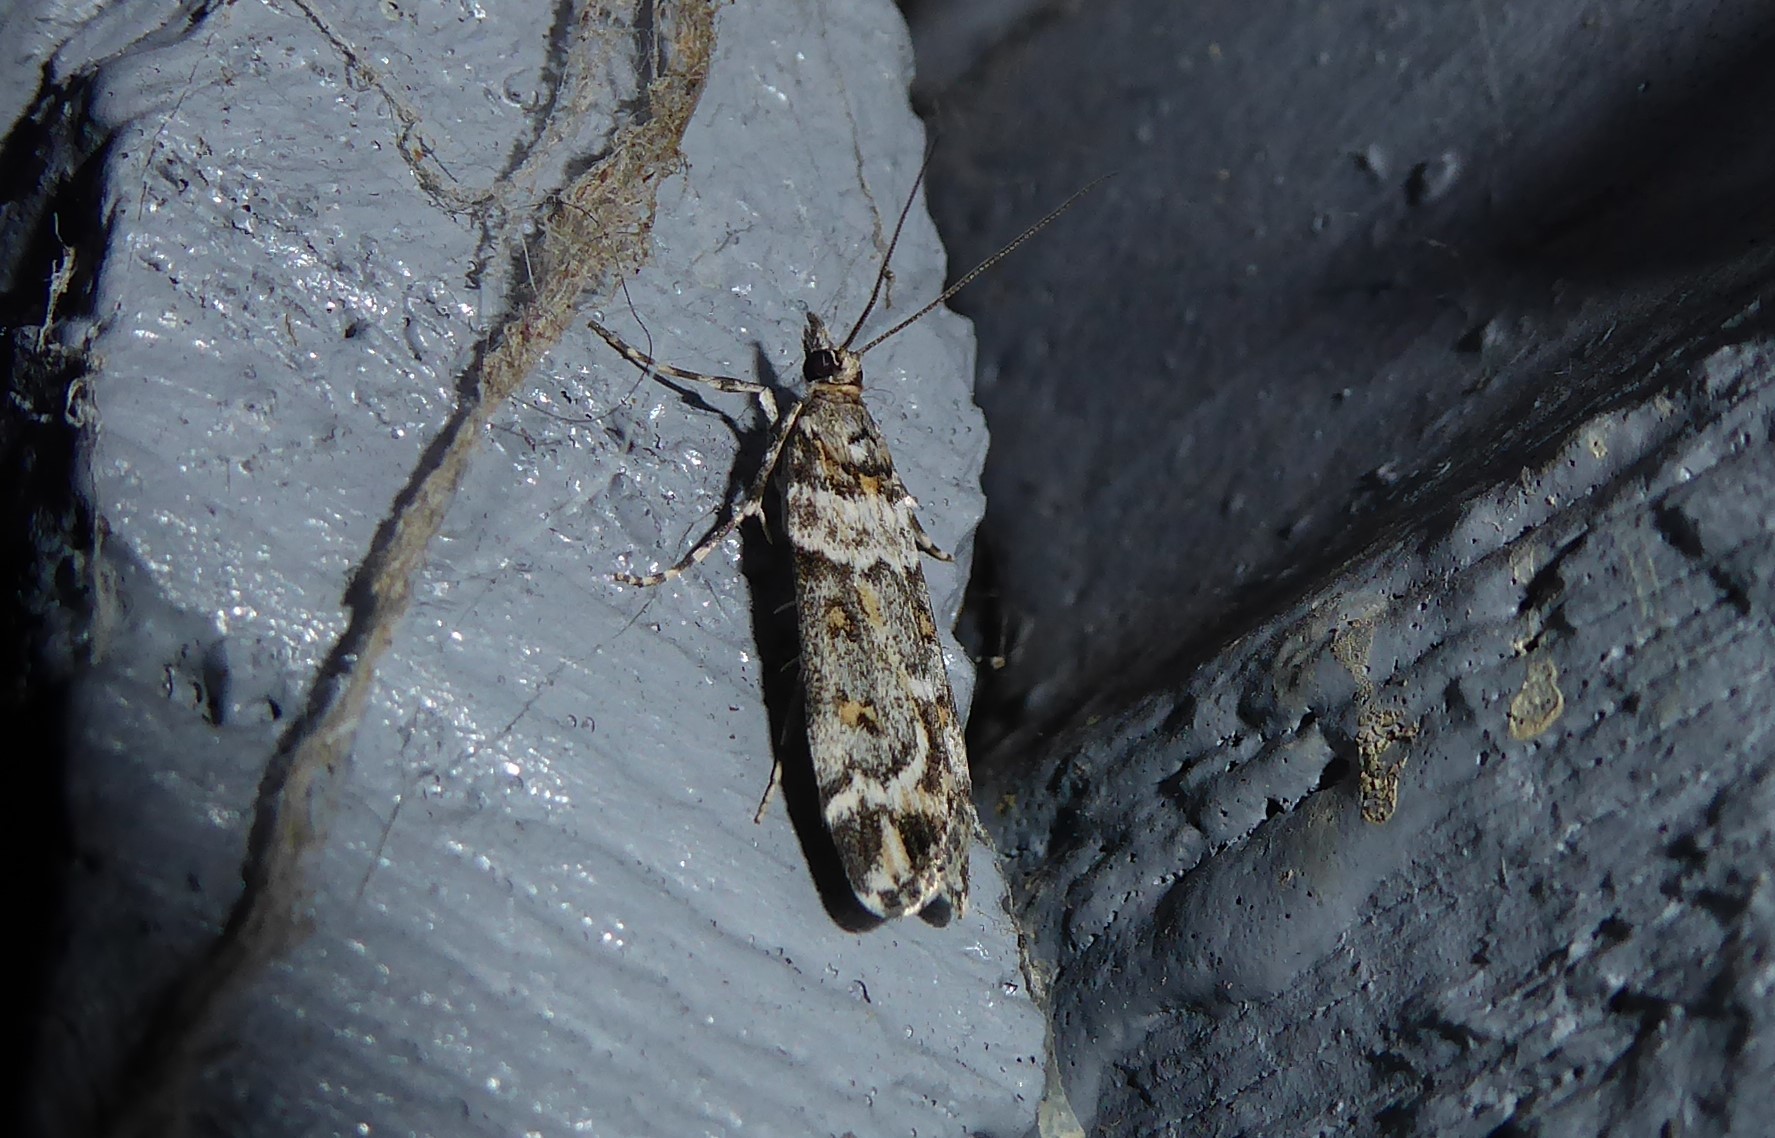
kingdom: Animalia
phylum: Arthropoda
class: Insecta
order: Lepidoptera
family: Crambidae
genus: Eudonia
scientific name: Eudonia diphtheralis
